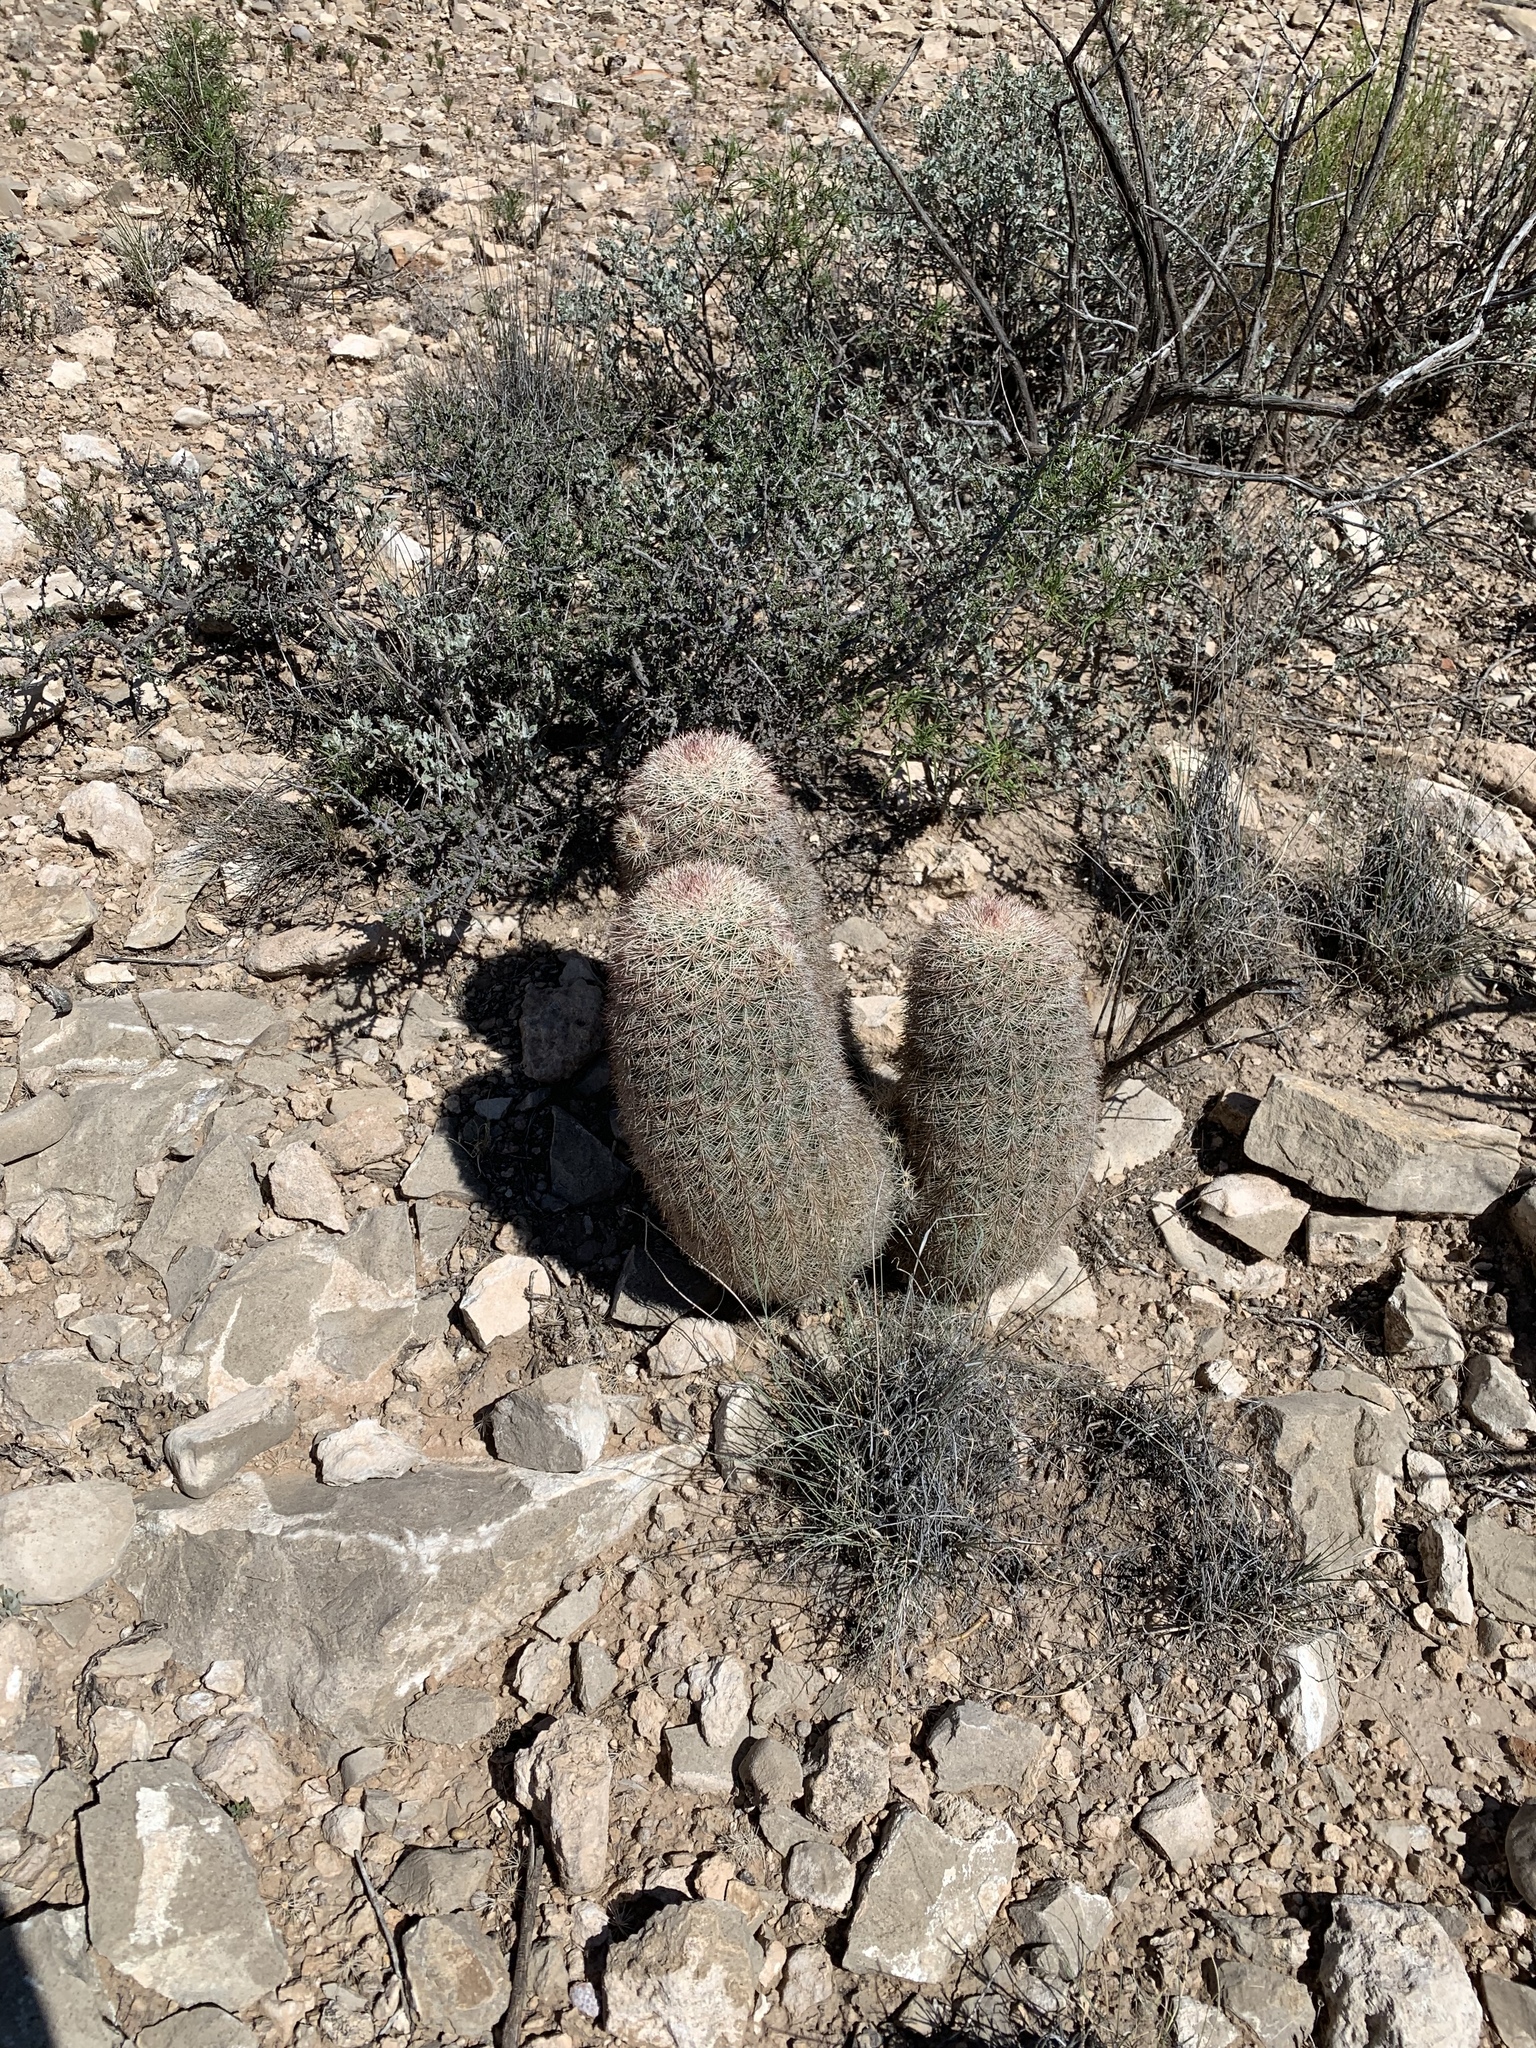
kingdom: Plantae
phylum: Tracheophyta
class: Magnoliopsida
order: Caryophyllales
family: Cactaceae
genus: Echinocereus
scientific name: Echinocereus dasyacanthus
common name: Spiny hedgehog cactus
